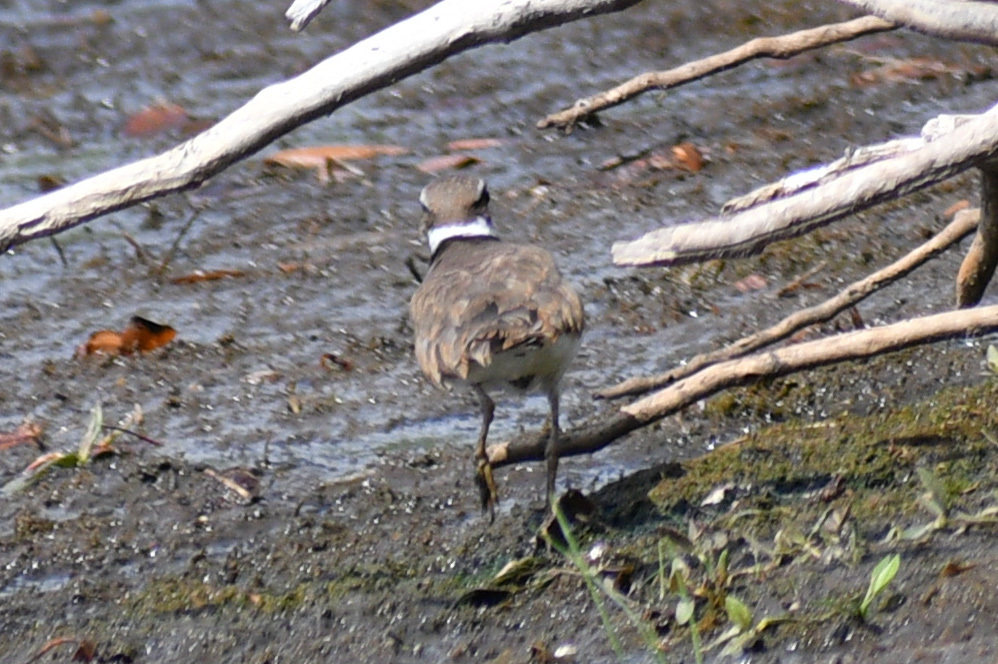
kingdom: Animalia
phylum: Chordata
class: Aves
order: Charadriiformes
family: Charadriidae
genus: Charadrius
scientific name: Charadrius vociferus
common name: Killdeer
